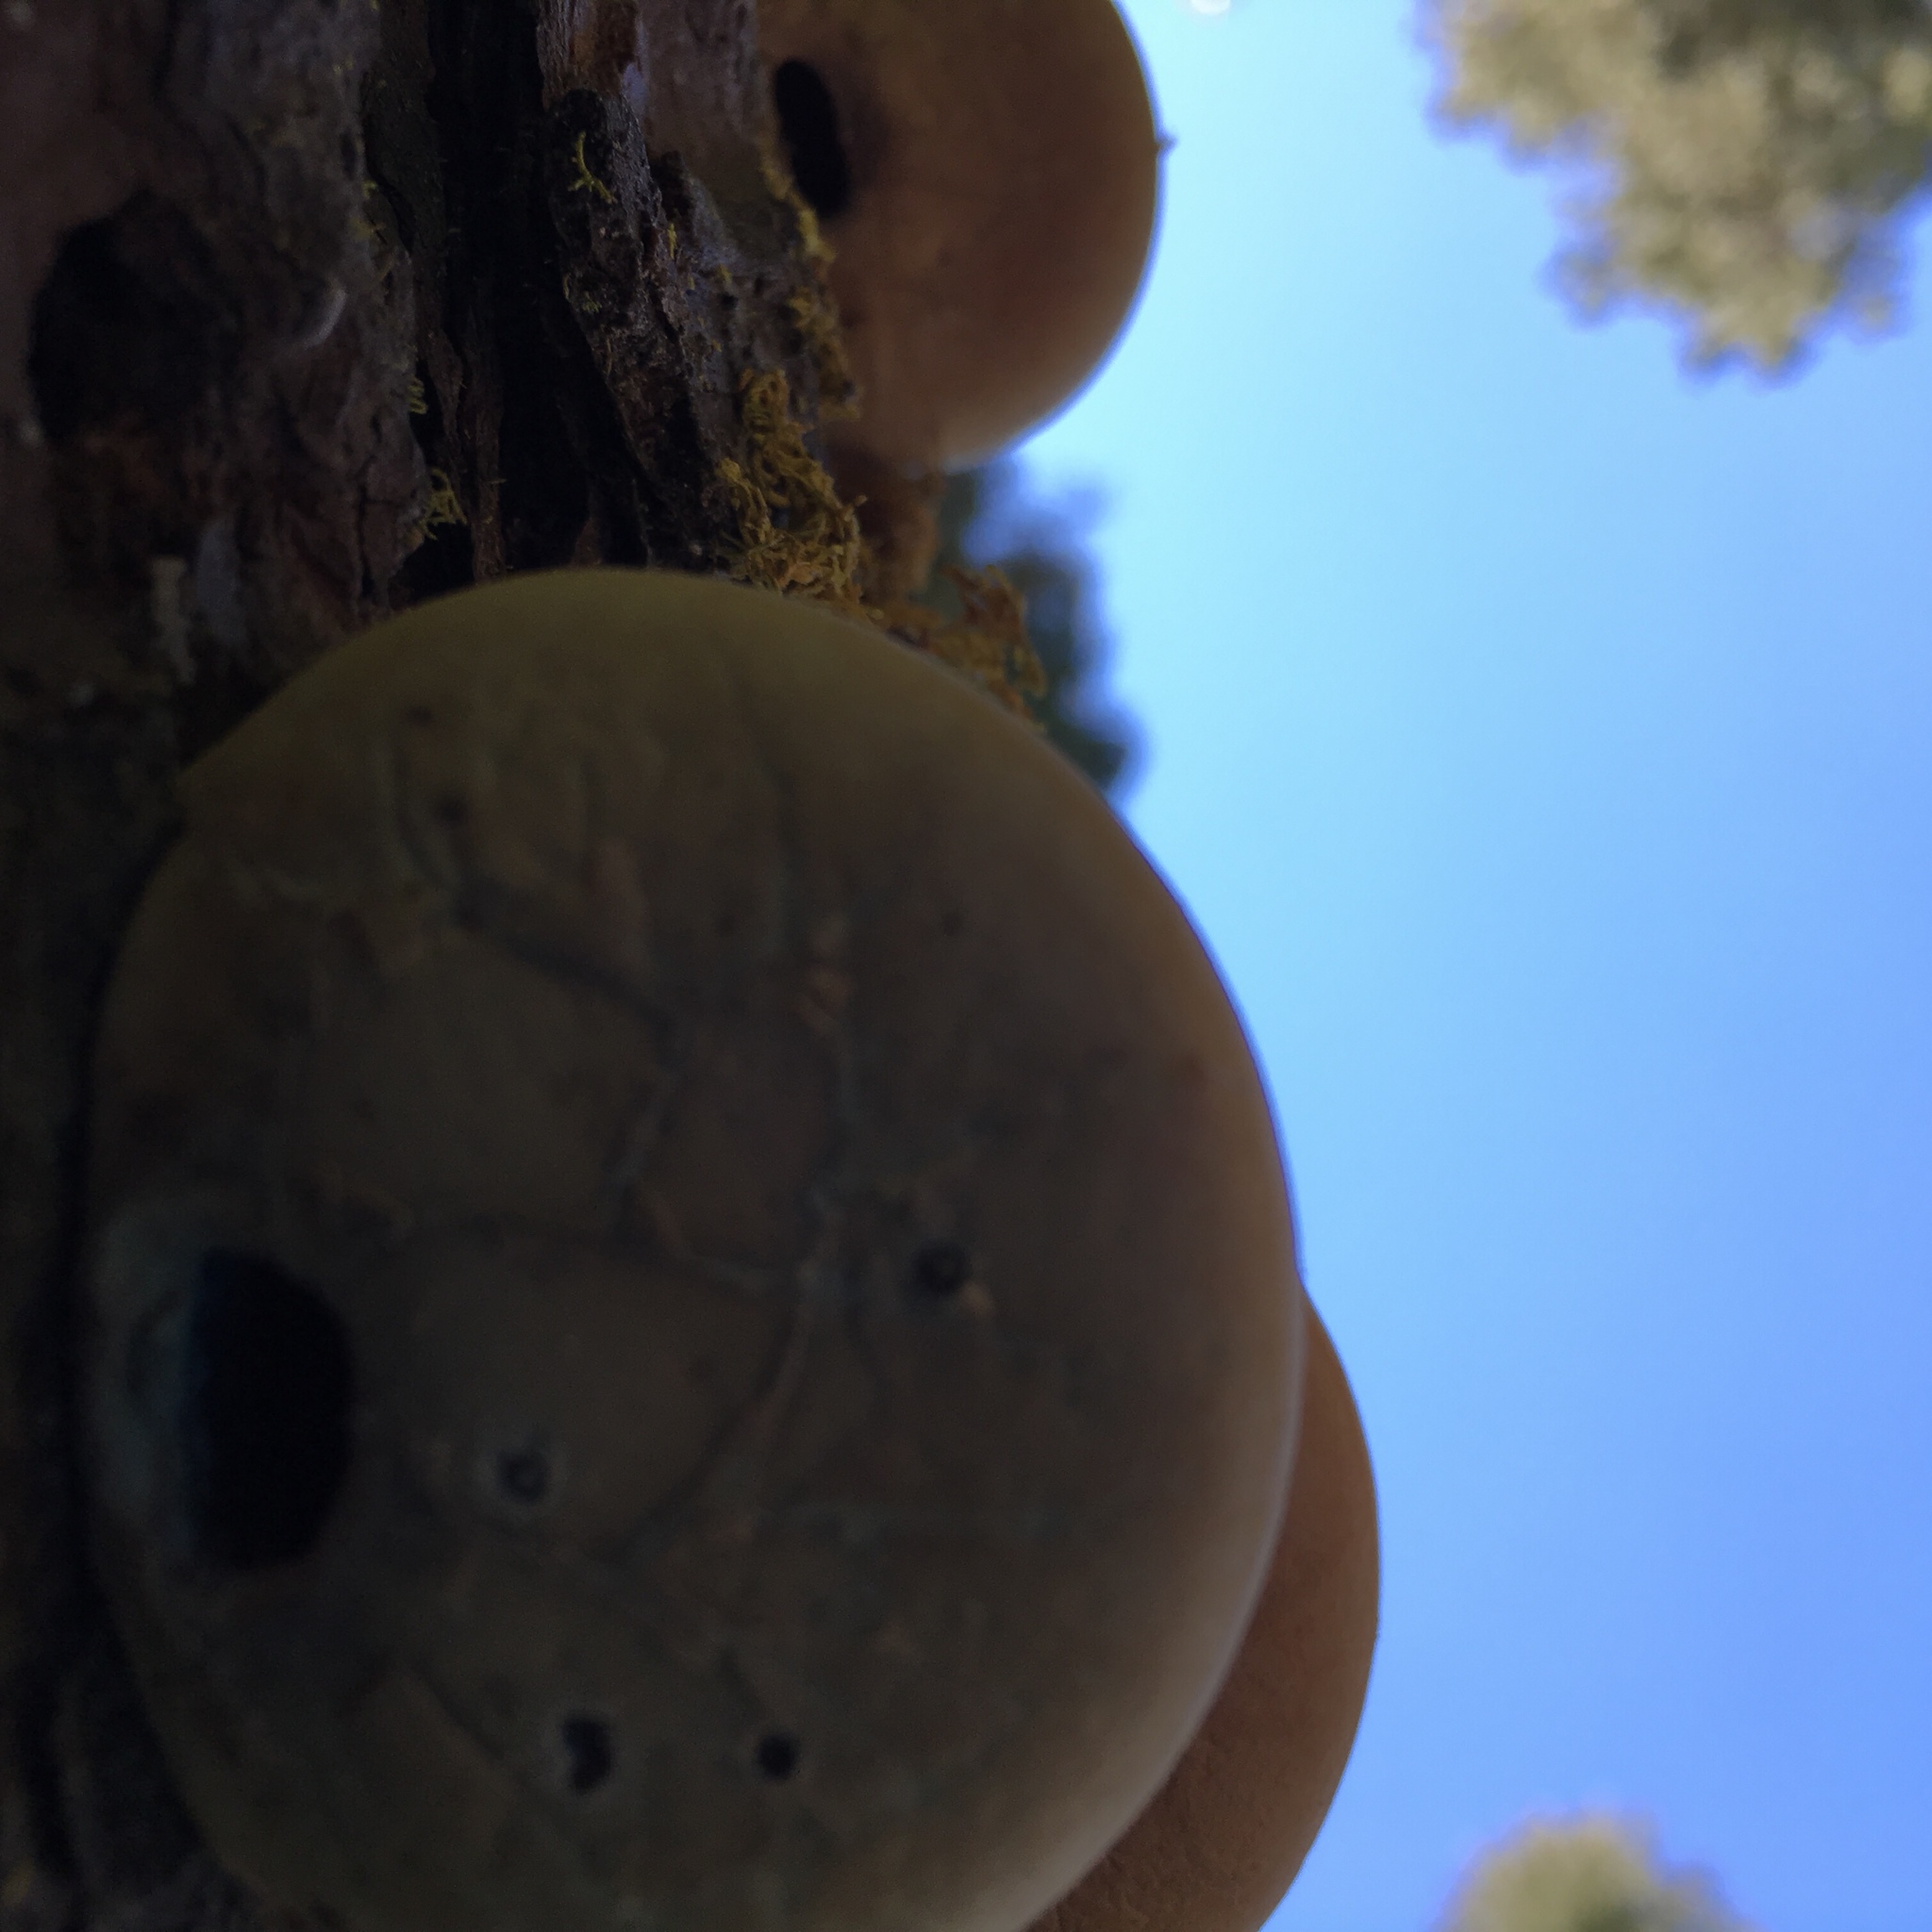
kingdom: Fungi
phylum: Basidiomycota
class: Agaricomycetes
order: Polyporales
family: Polyporaceae
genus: Cryptoporus
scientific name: Cryptoporus volvatus
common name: Veiled polypore
